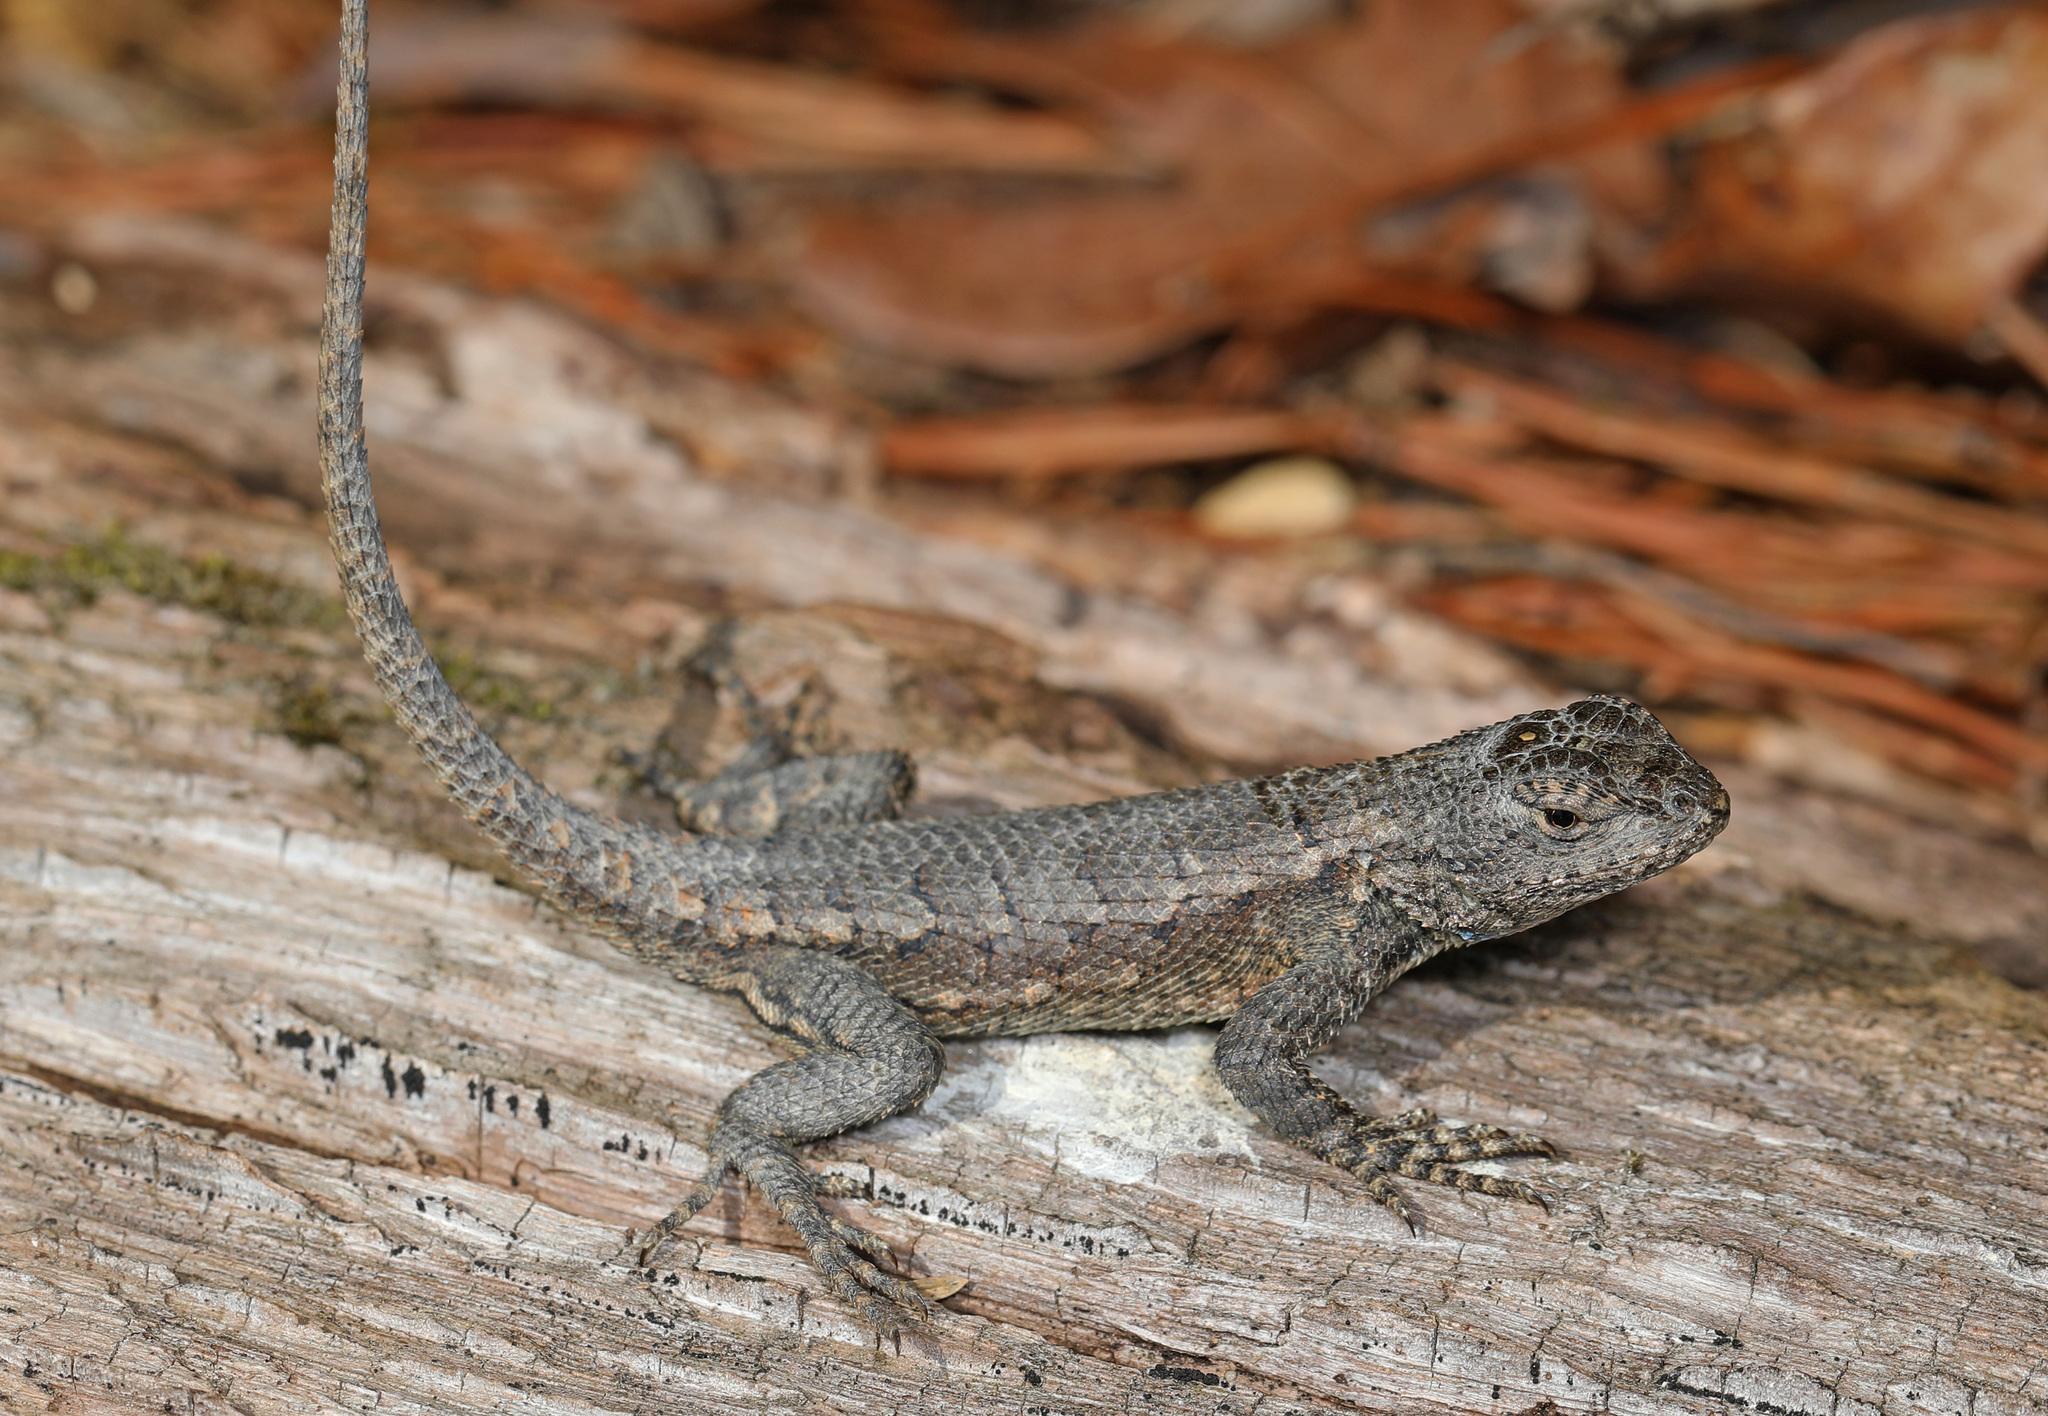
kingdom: Animalia
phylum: Chordata
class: Squamata
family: Phrynosomatidae
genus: Sceloporus
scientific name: Sceloporus undulatus
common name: Eastern fence lizard
